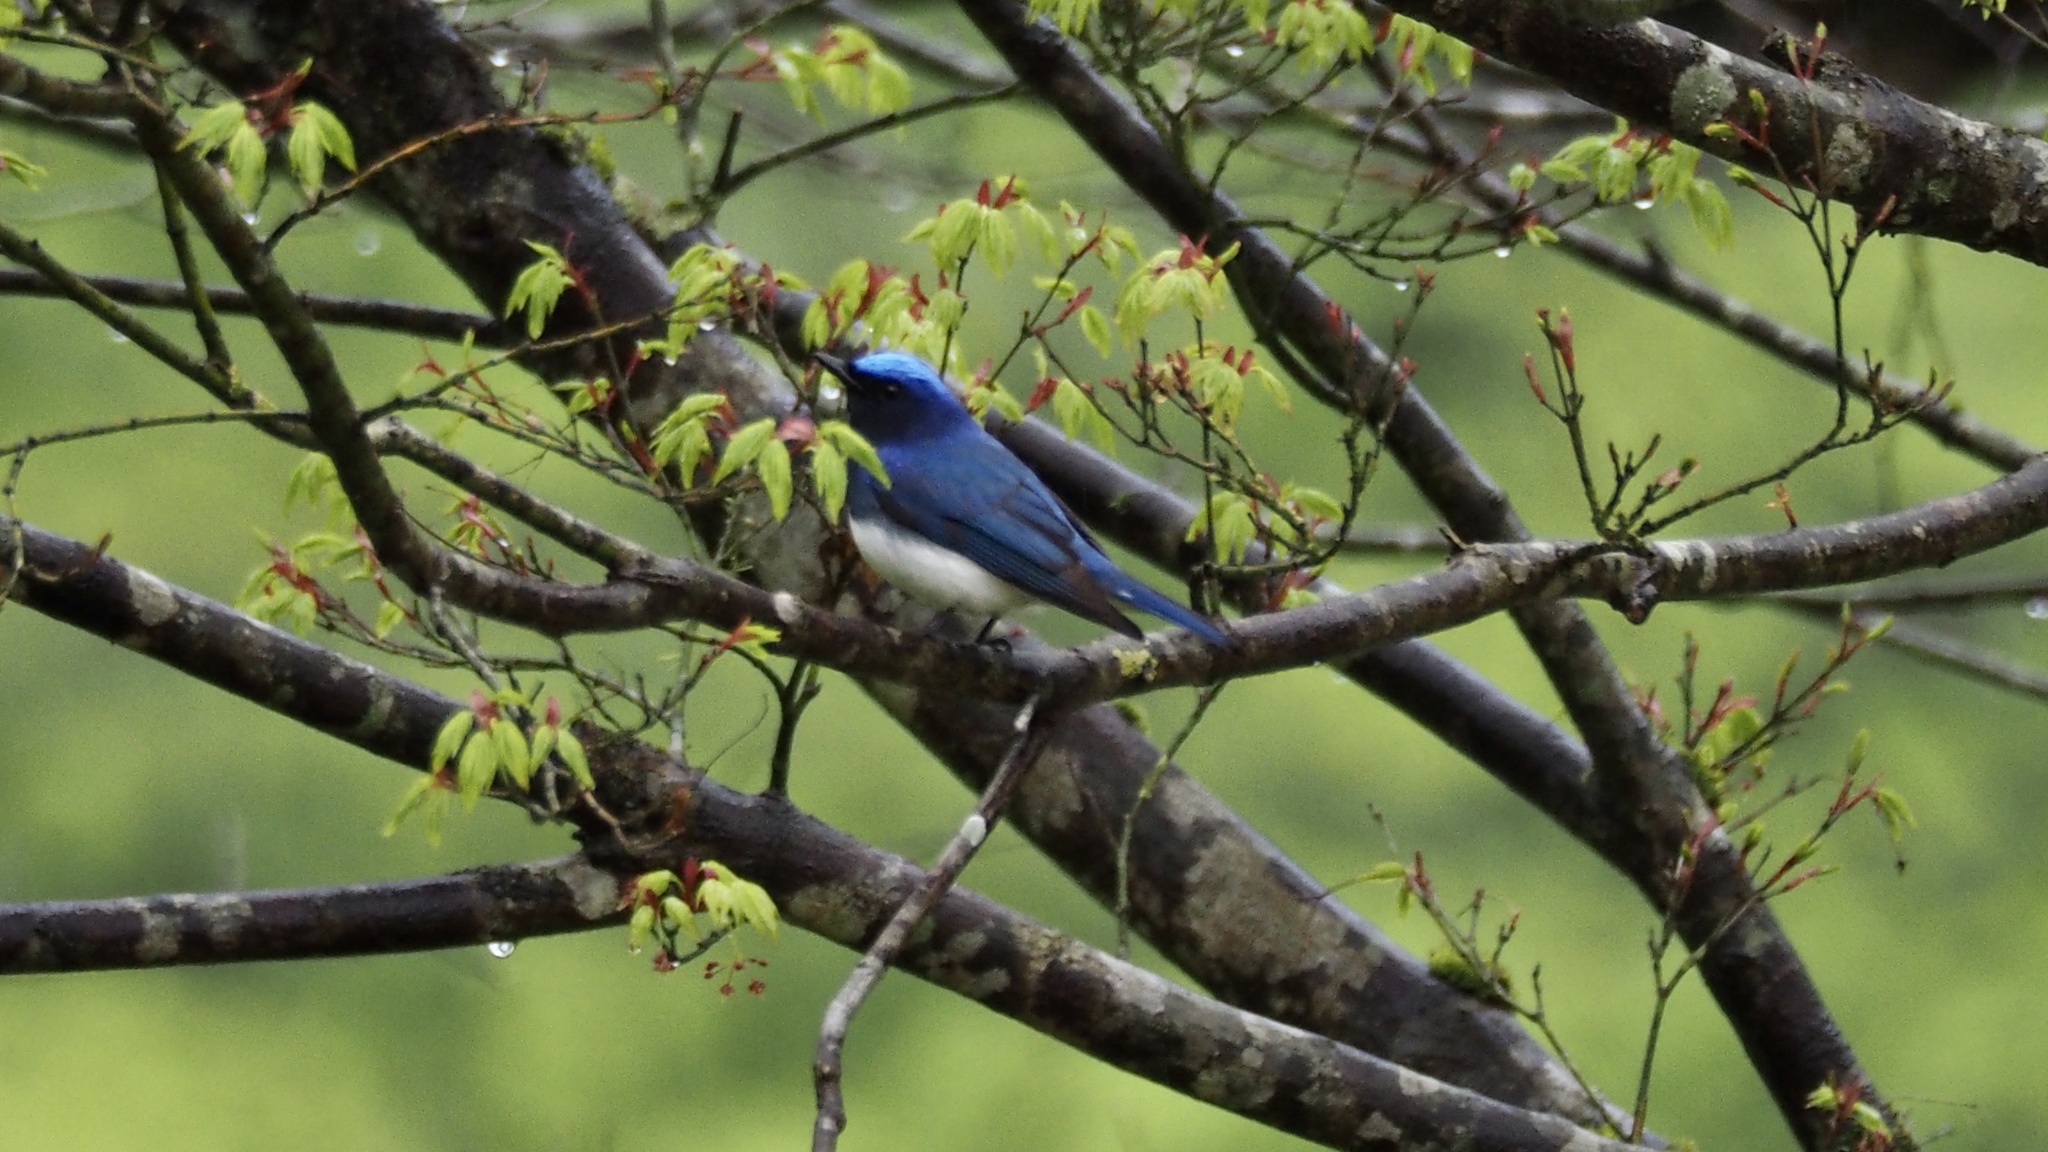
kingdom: Animalia
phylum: Chordata
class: Aves
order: Passeriformes
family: Muscicapidae
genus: Cyanoptila
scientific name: Cyanoptila cyanomelana
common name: Blue-and-white flycatcher
